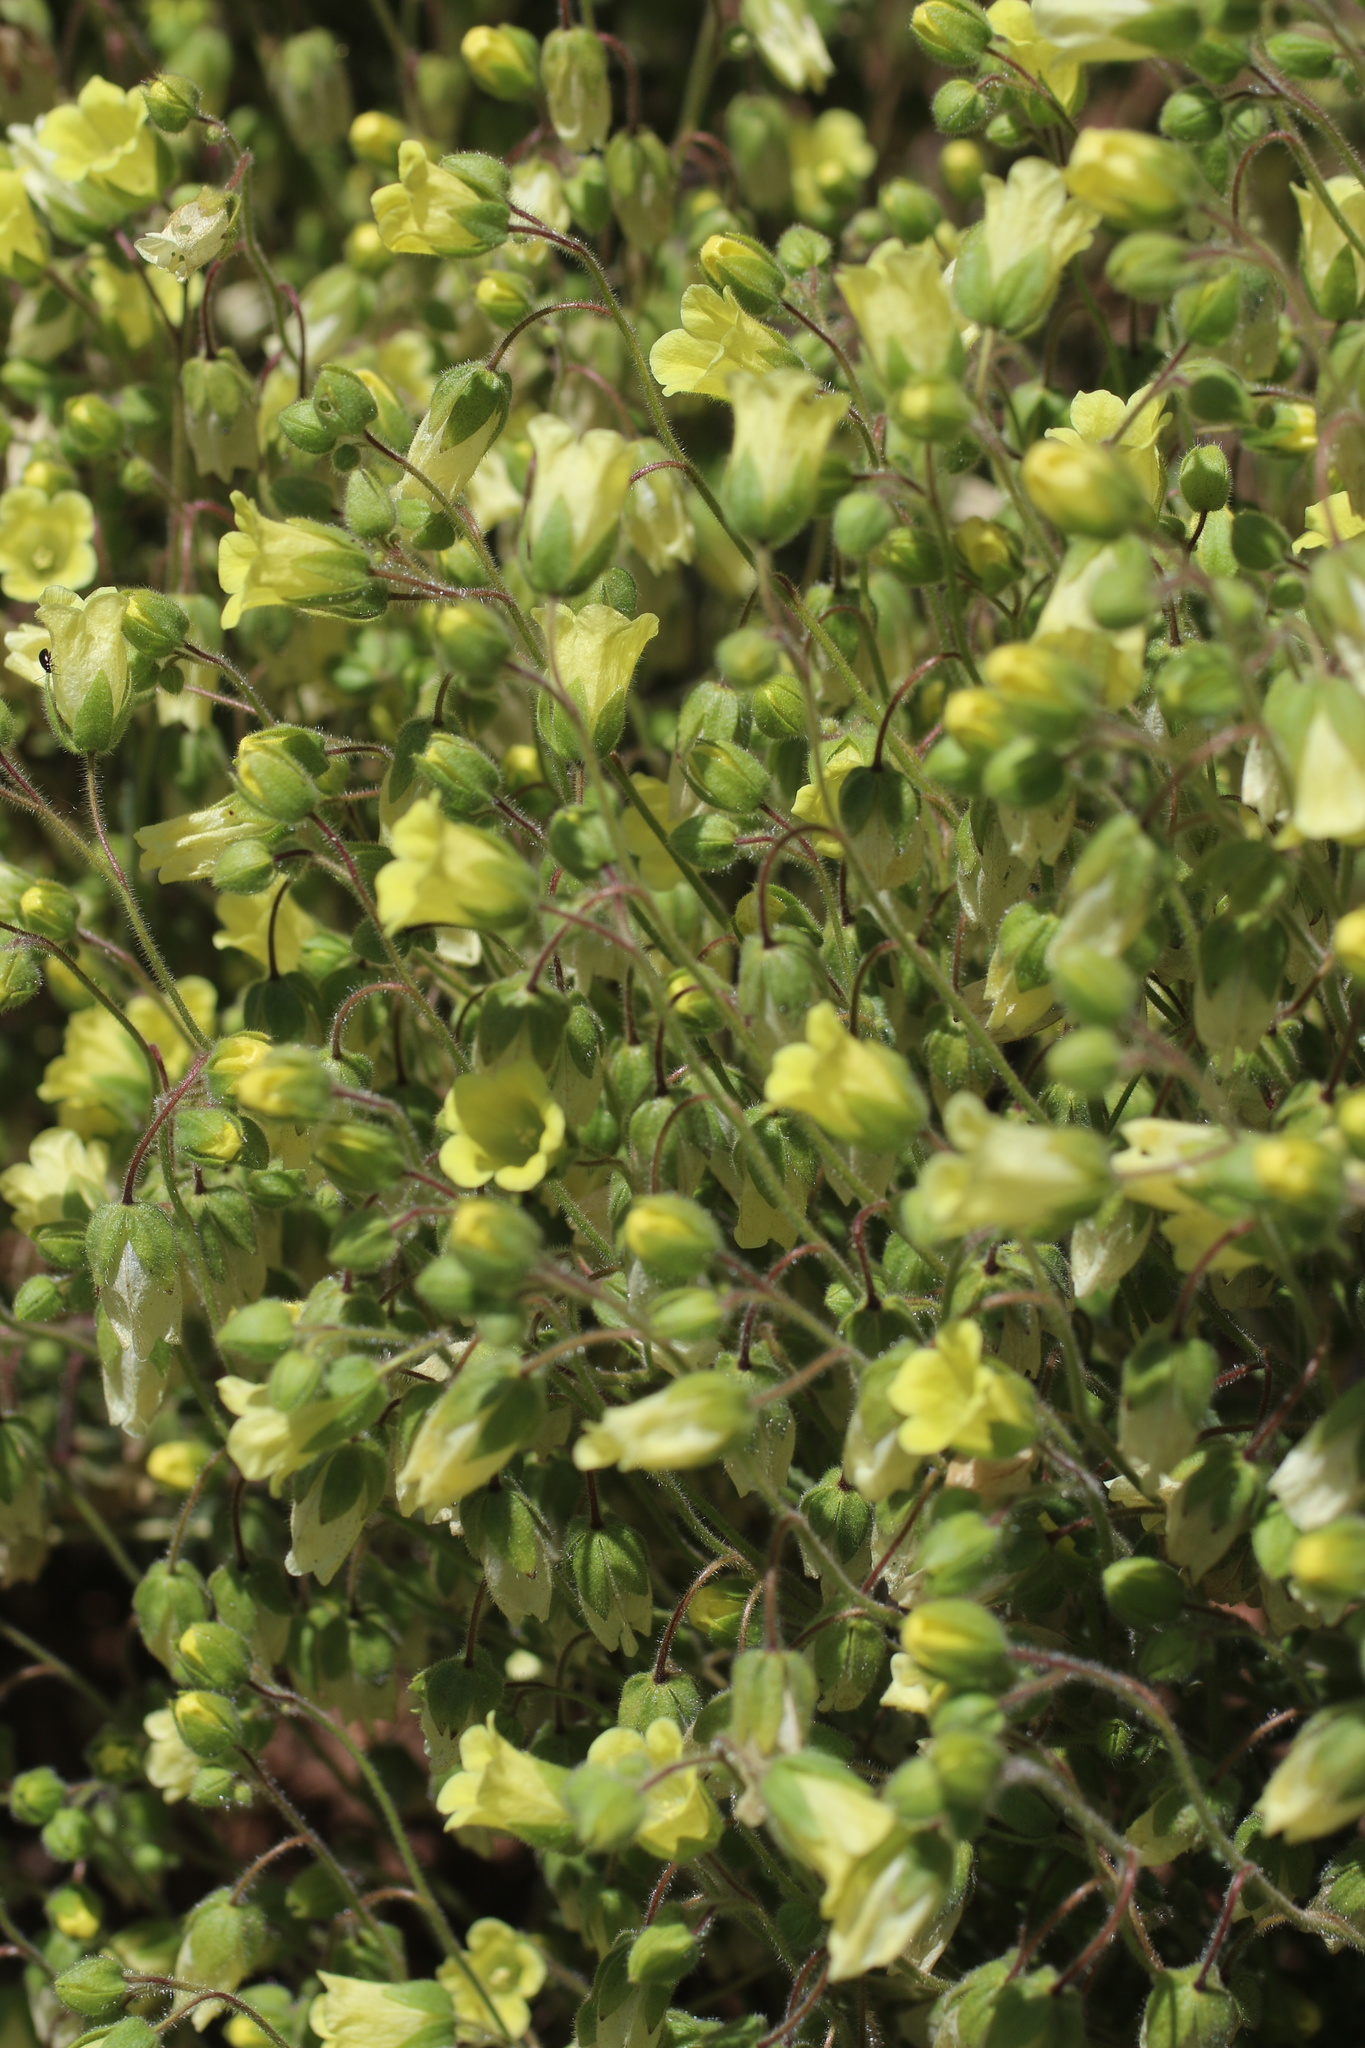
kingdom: Plantae
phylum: Tracheophyta
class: Magnoliopsida
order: Boraginales
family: Hydrophyllaceae
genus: Emmenanthe
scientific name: Emmenanthe penduliflora
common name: Whispering-bells
